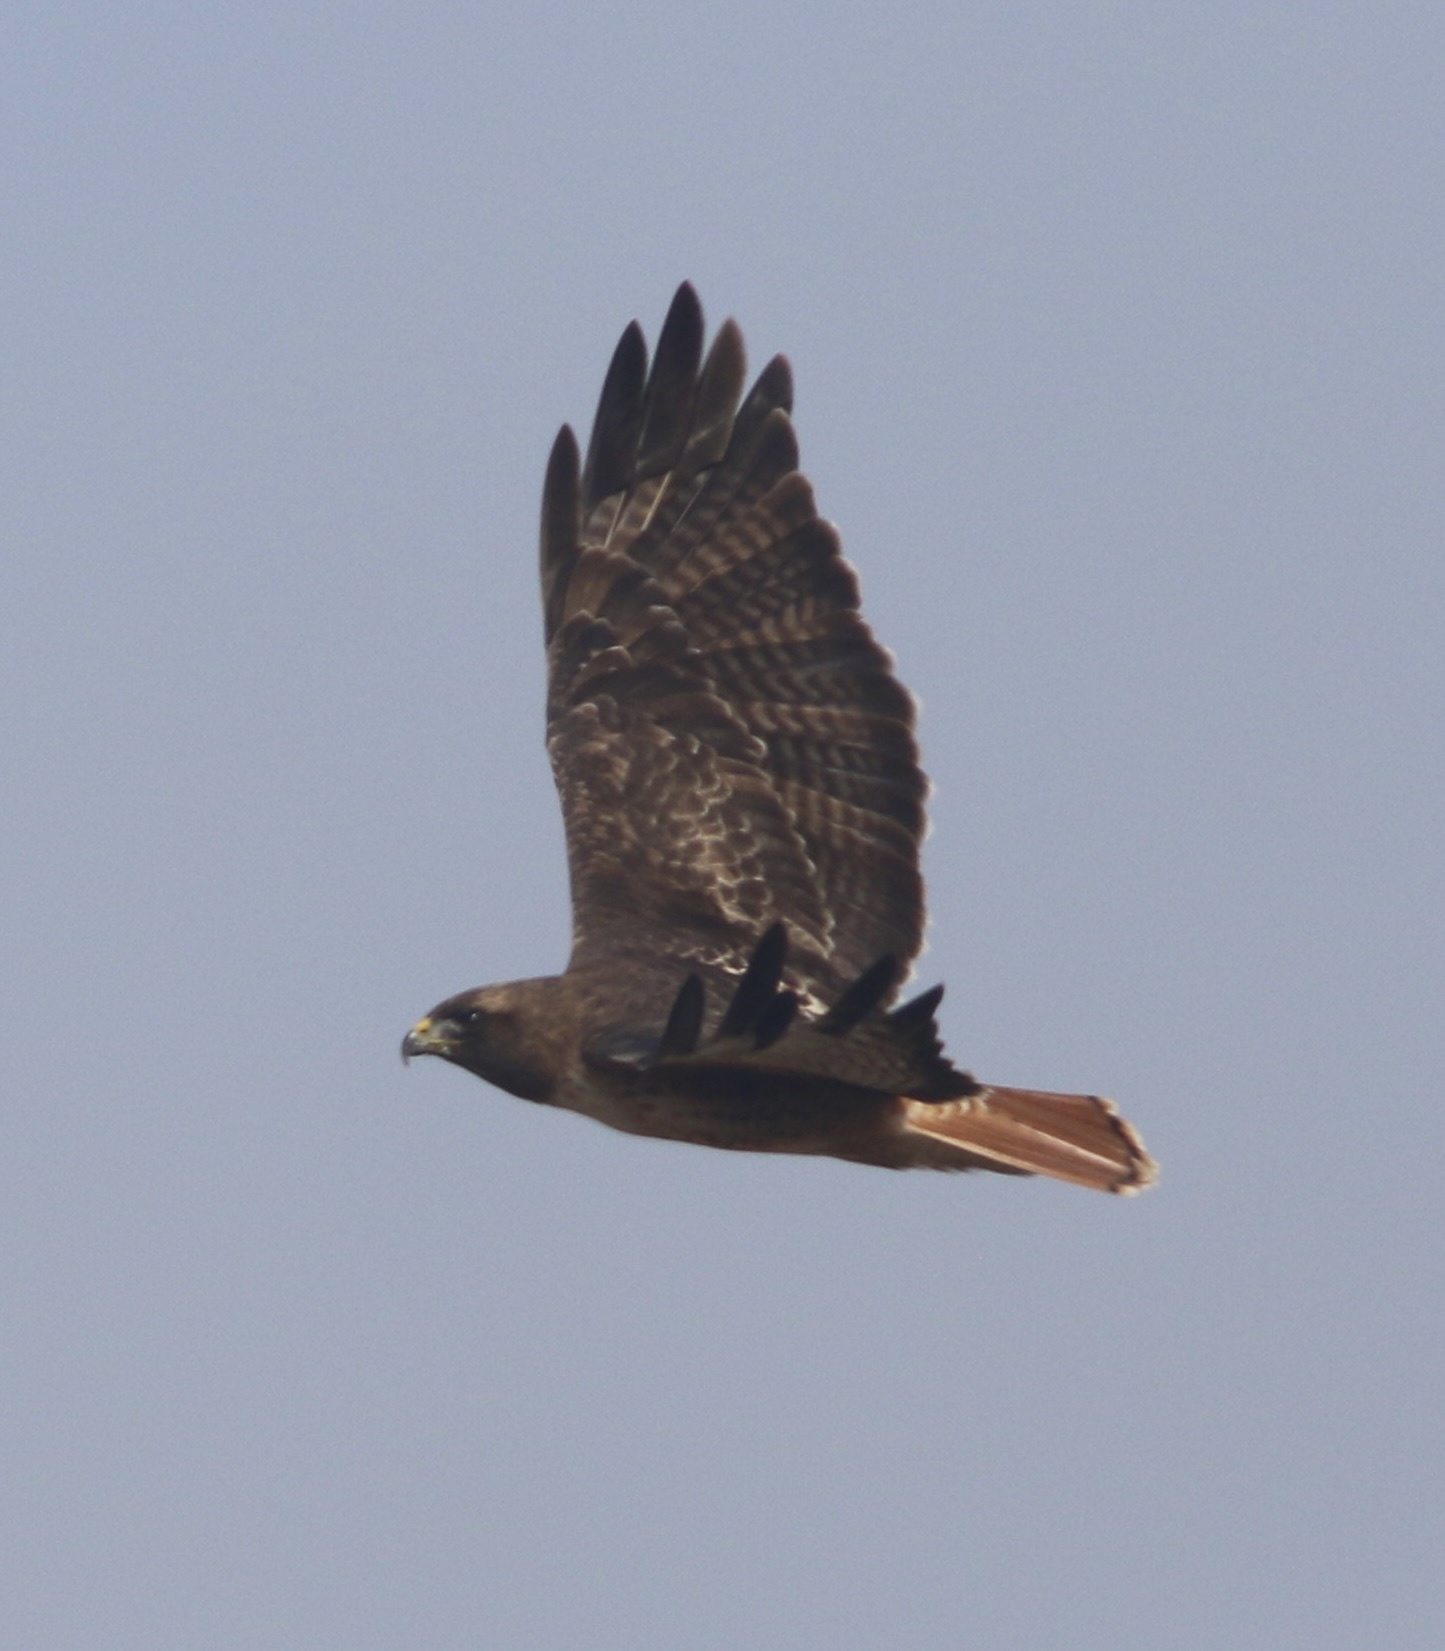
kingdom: Animalia
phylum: Chordata
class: Aves
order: Accipitriformes
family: Accipitridae
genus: Buteo
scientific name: Buteo jamaicensis
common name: Red-tailed hawk
